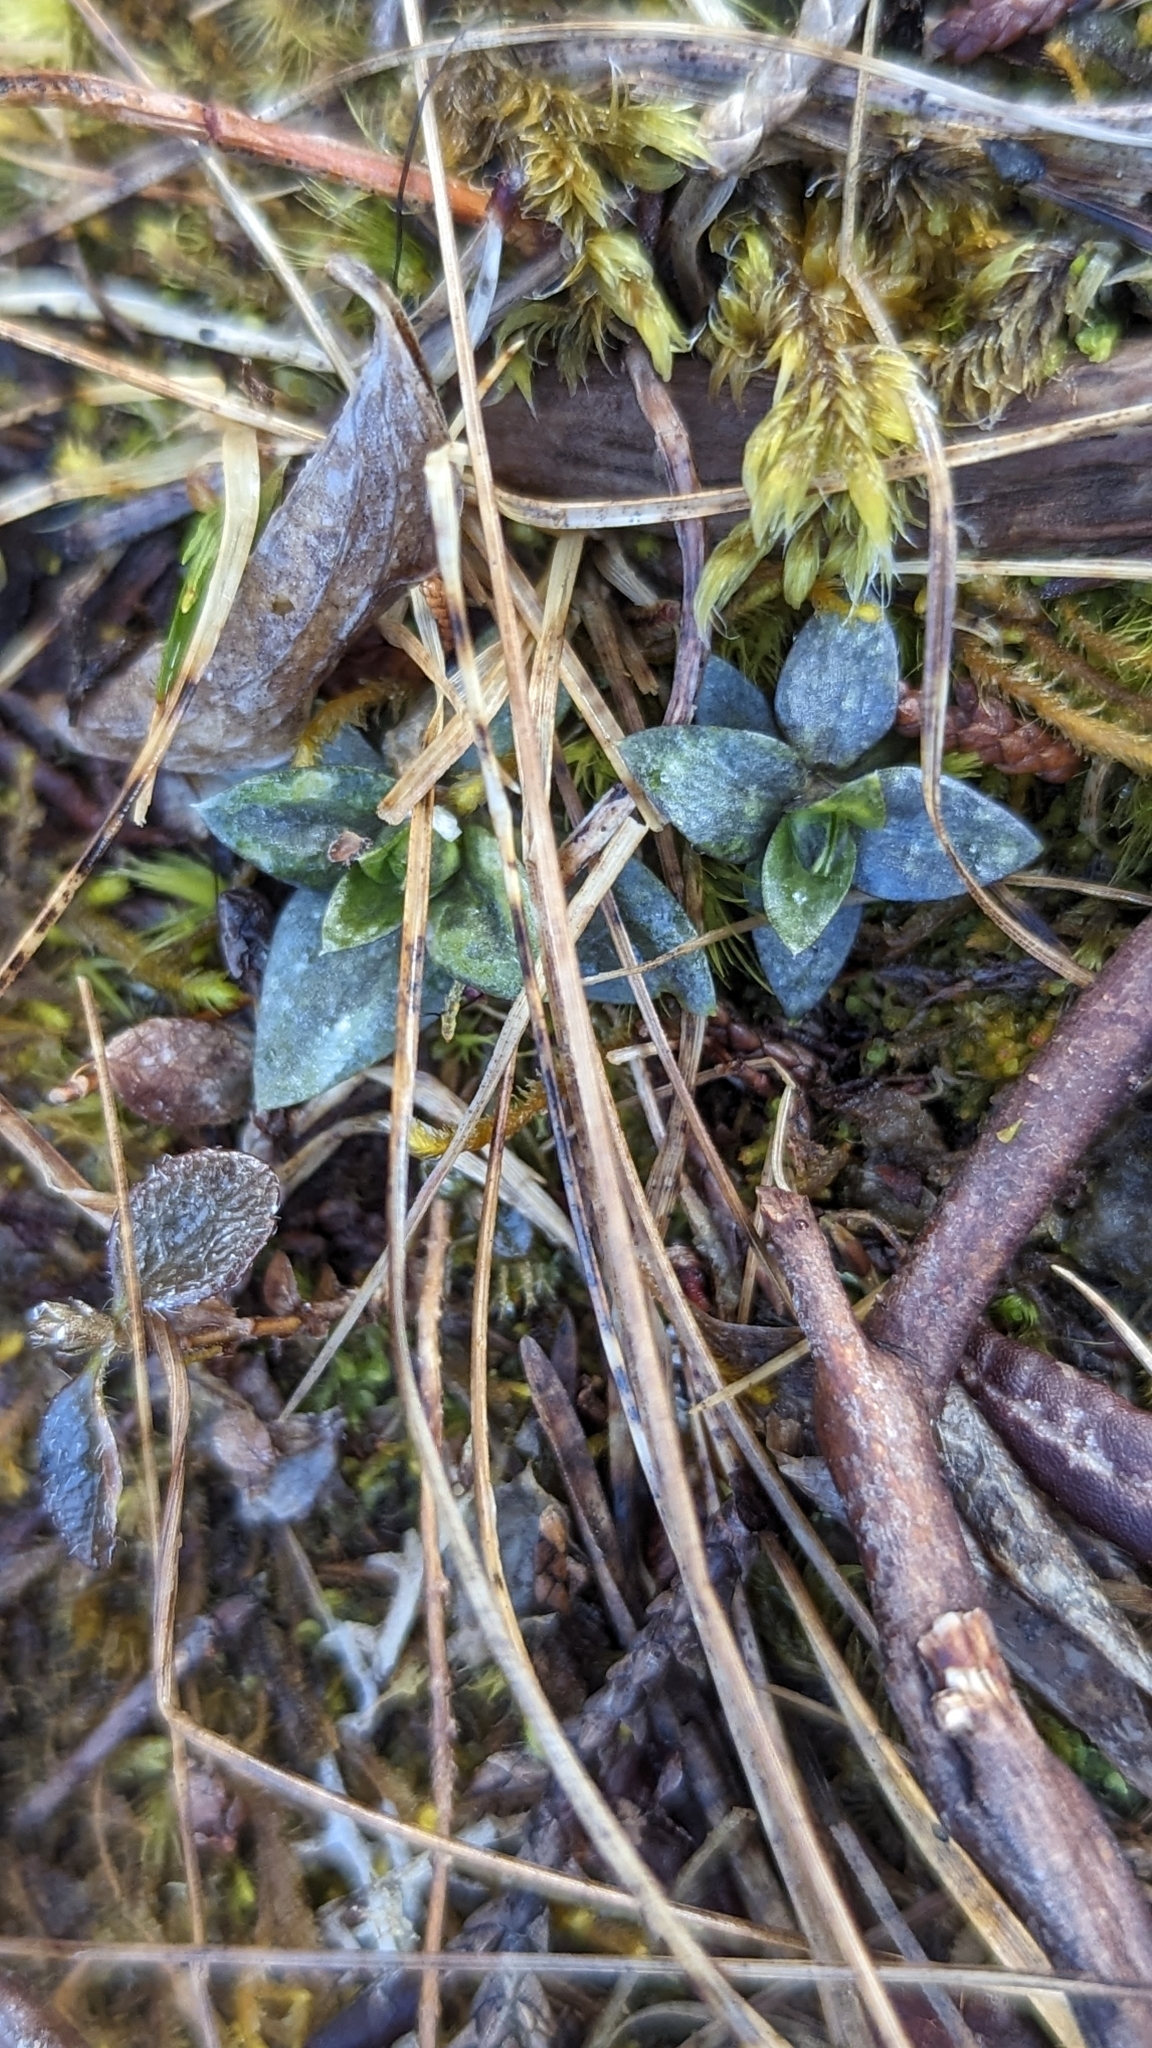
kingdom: Plantae
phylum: Tracheophyta
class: Magnoliopsida
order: Gentianales
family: Gentianaceae
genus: Gentiana
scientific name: Gentiana douglasiana
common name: Swamp gentian
